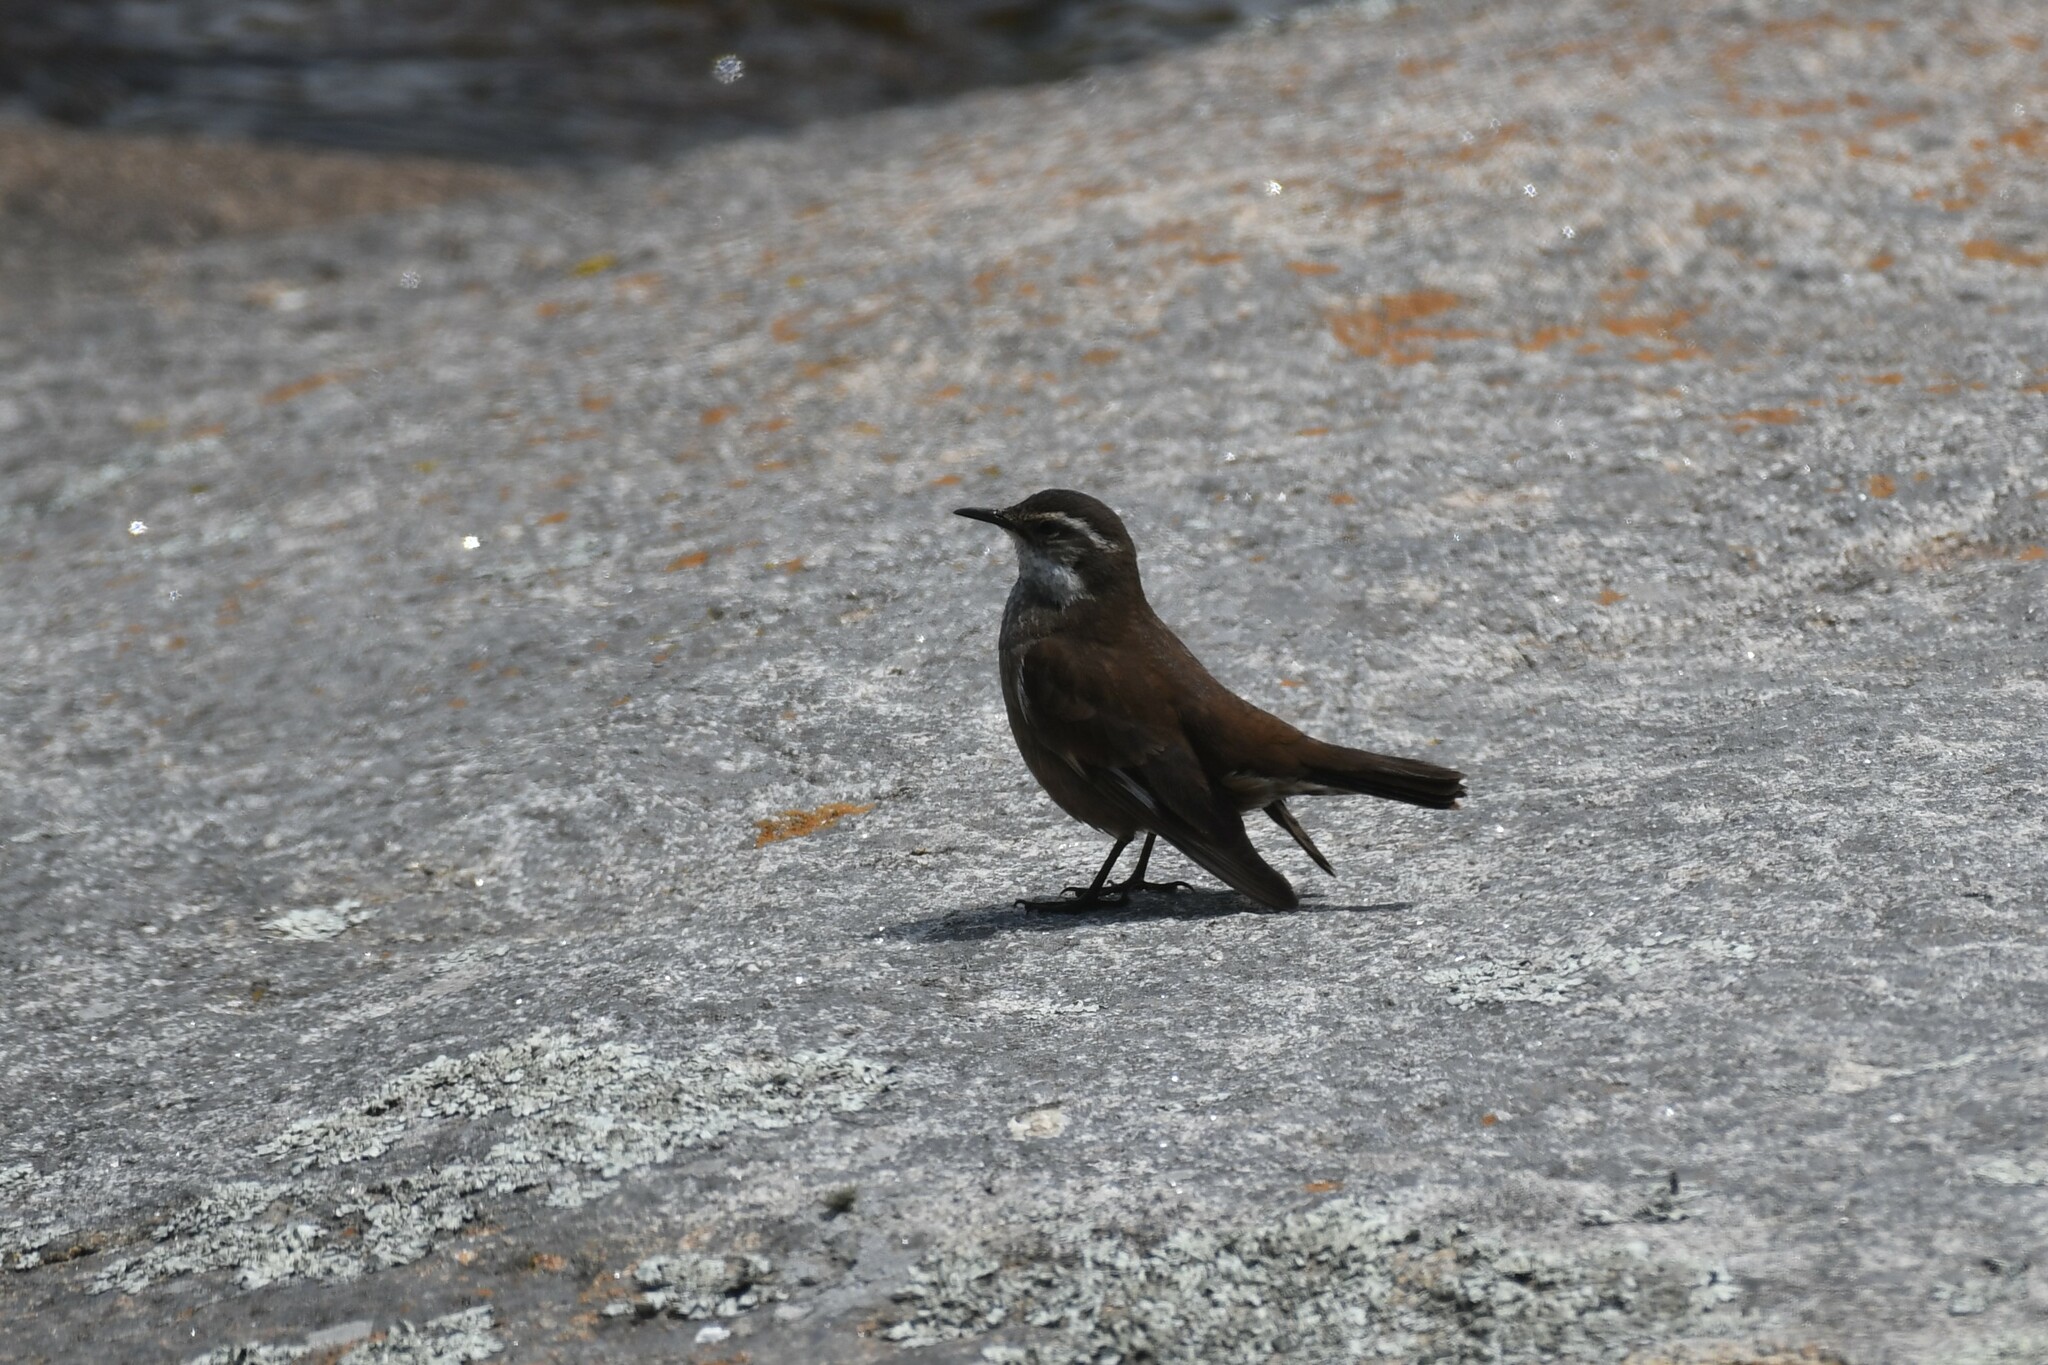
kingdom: Animalia
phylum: Chordata
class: Aves
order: Passeriformes
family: Furnariidae
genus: Cinclodes
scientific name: Cinclodes olrogi
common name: Olrog's cinclodes
